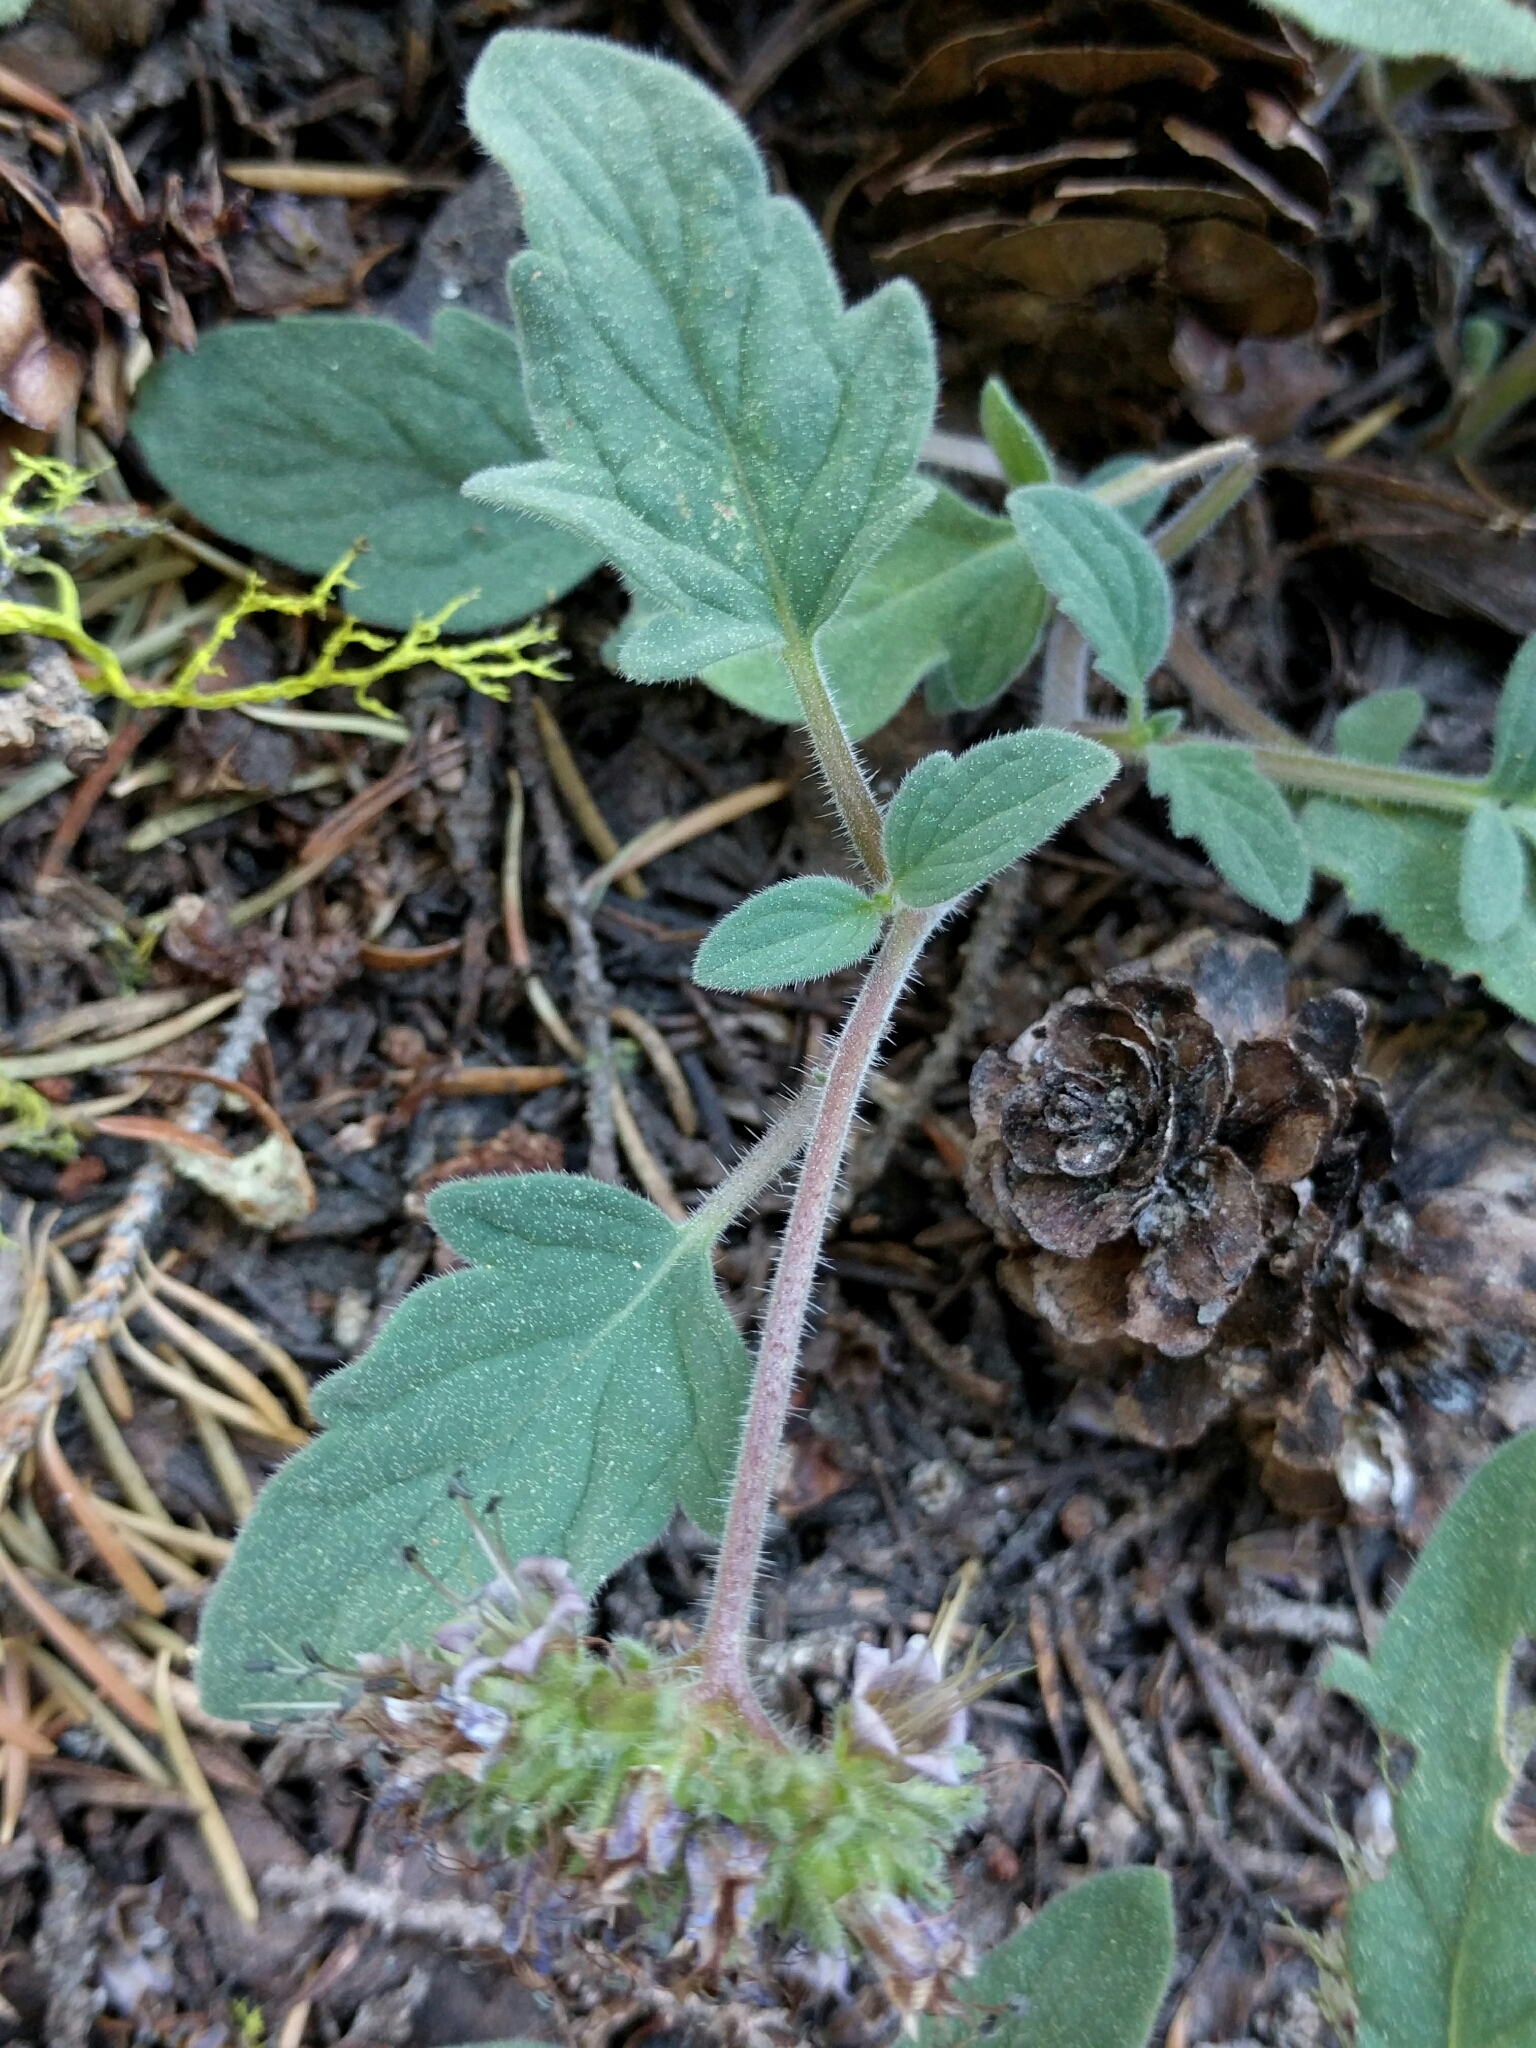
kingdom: Plantae
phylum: Tracheophyta
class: Magnoliopsida
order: Boraginales
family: Hydrophyllaceae
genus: Phacelia
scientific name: Phacelia hydrophylloides
